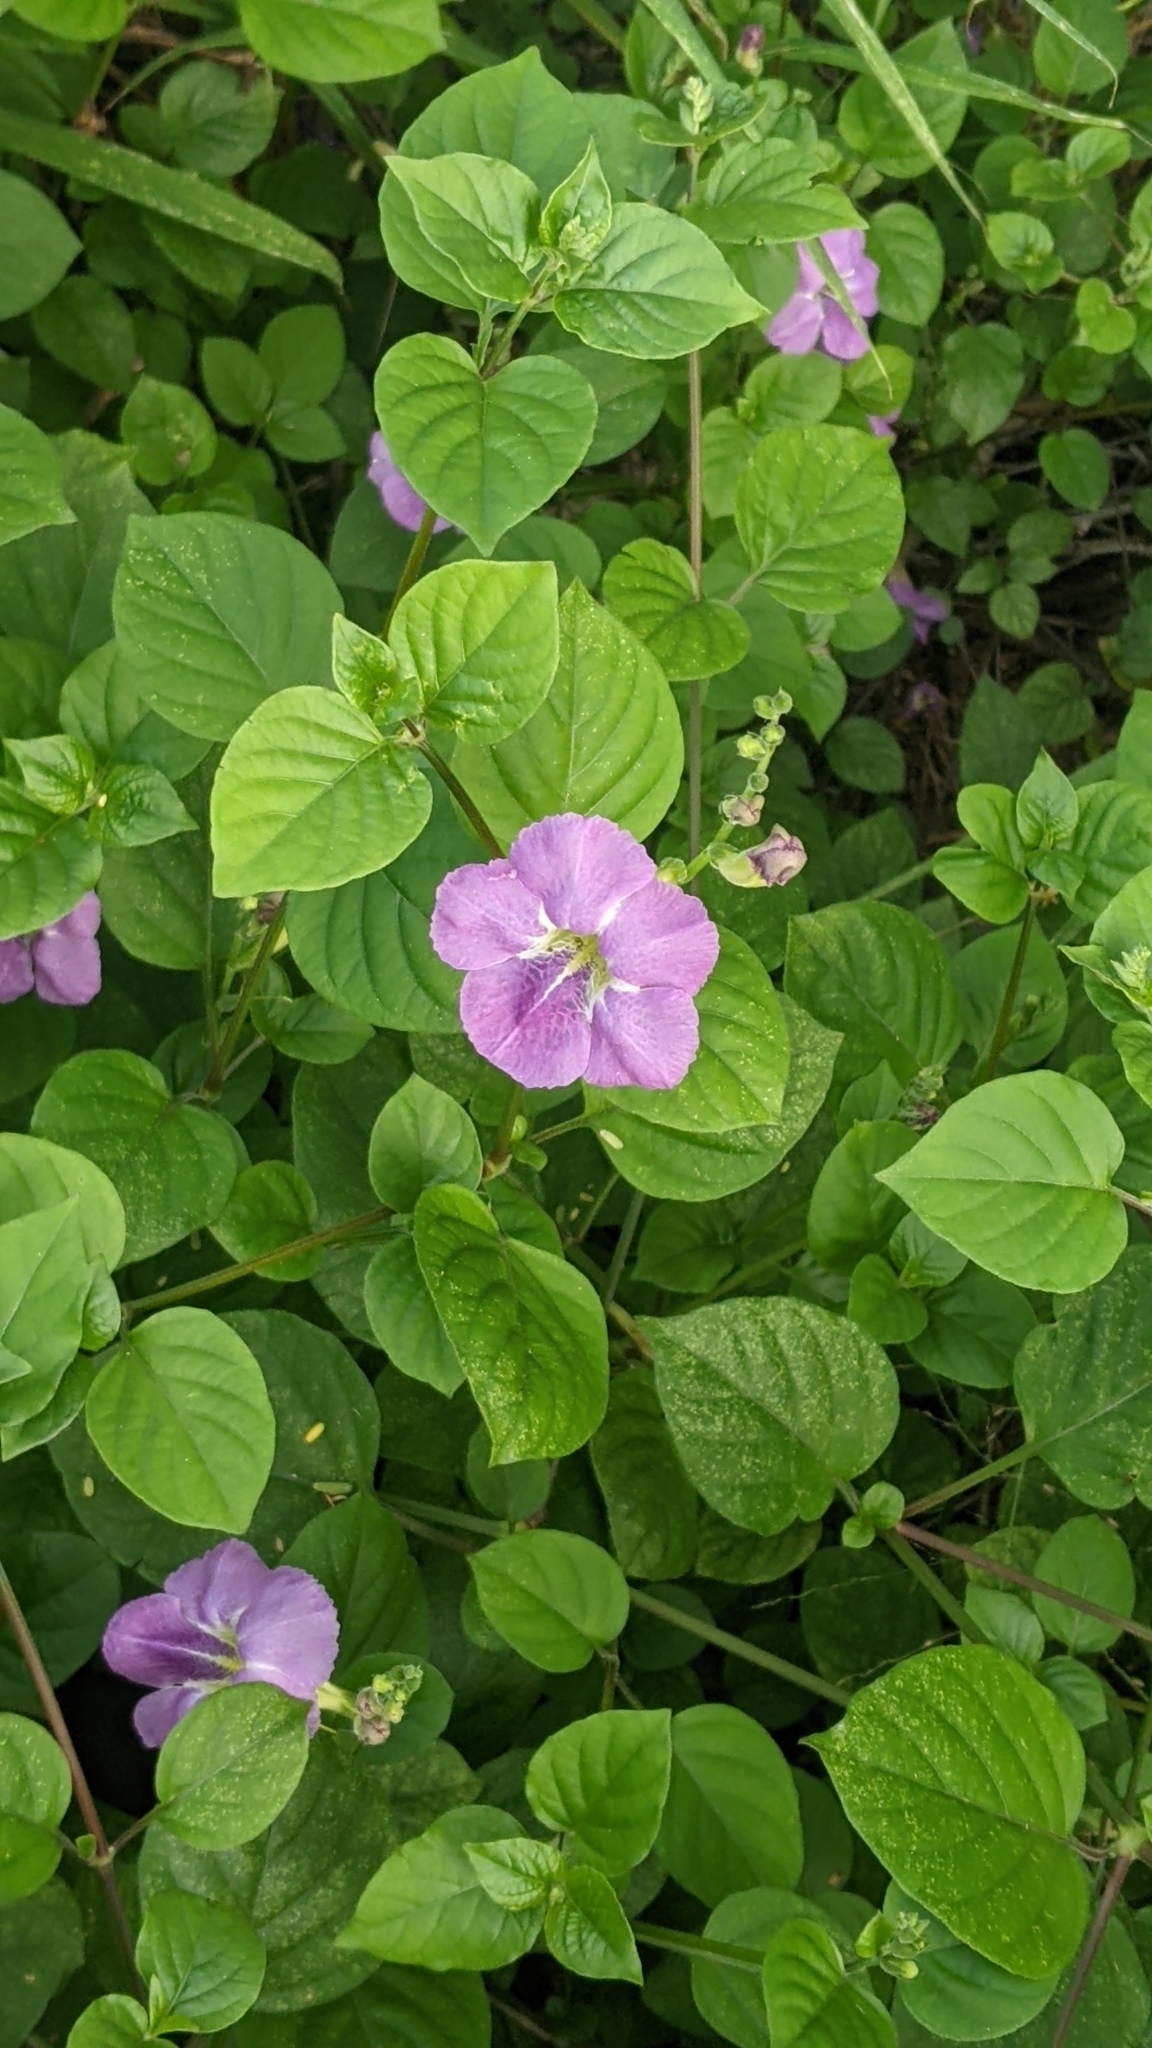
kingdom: Plantae
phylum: Tracheophyta
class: Magnoliopsida
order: Lamiales
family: Acanthaceae
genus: Asystasia
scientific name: Asystasia gangetica
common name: Chinese violet
